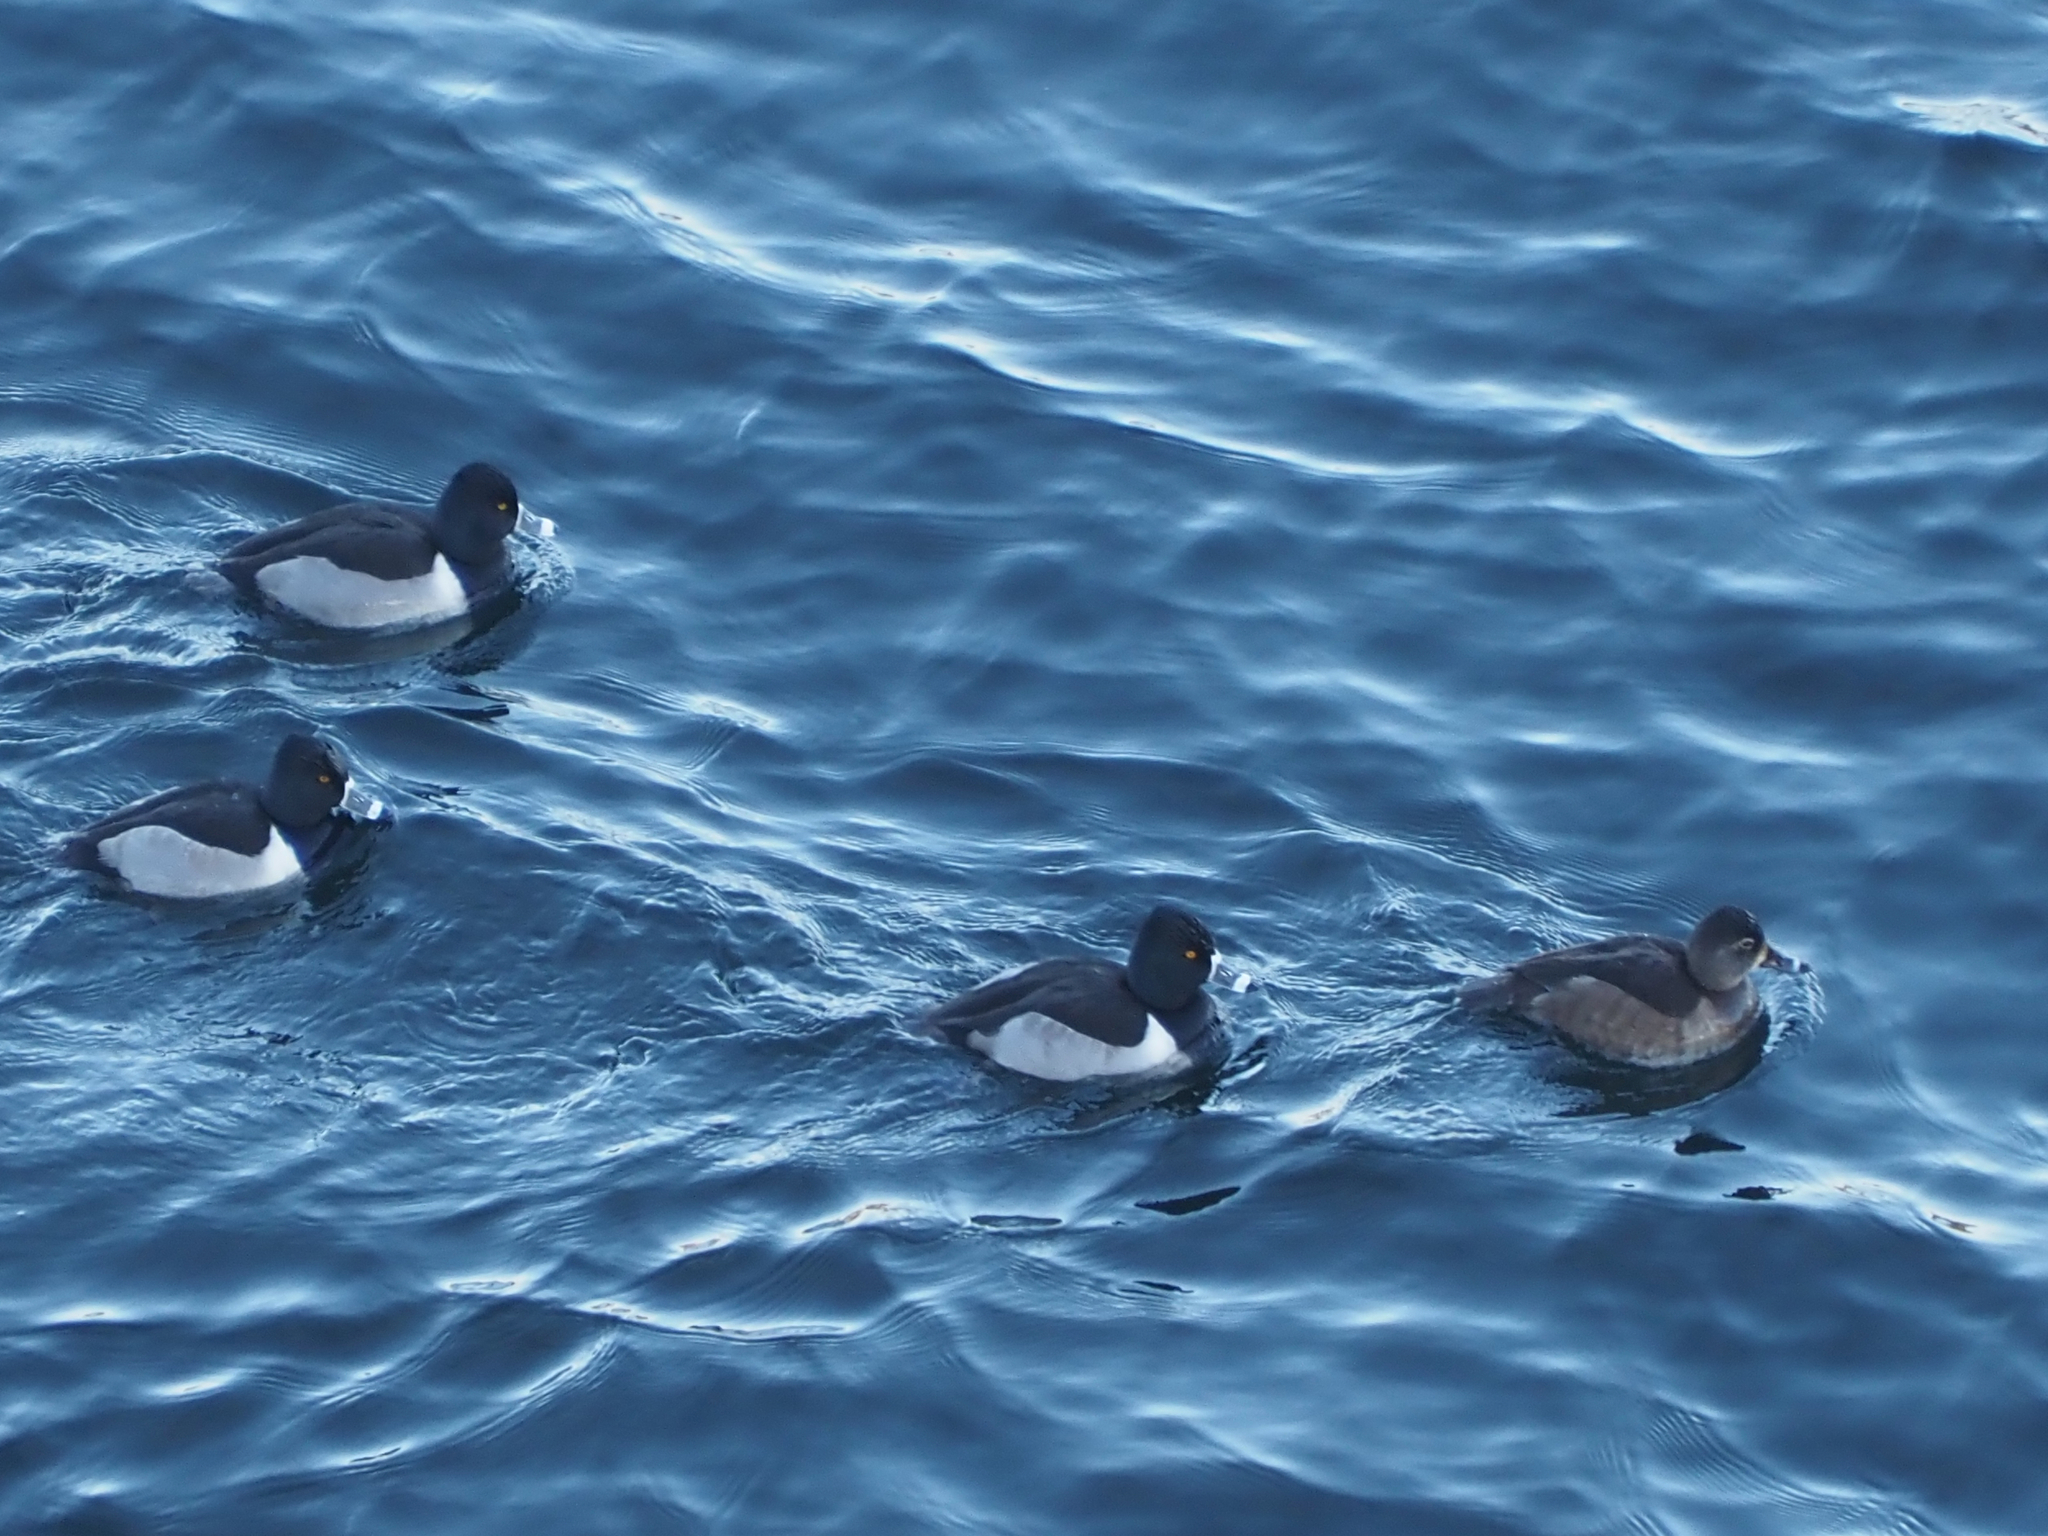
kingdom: Animalia
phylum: Chordata
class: Aves
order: Anseriformes
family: Anatidae
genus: Aythya
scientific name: Aythya collaris
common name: Ring-necked duck
